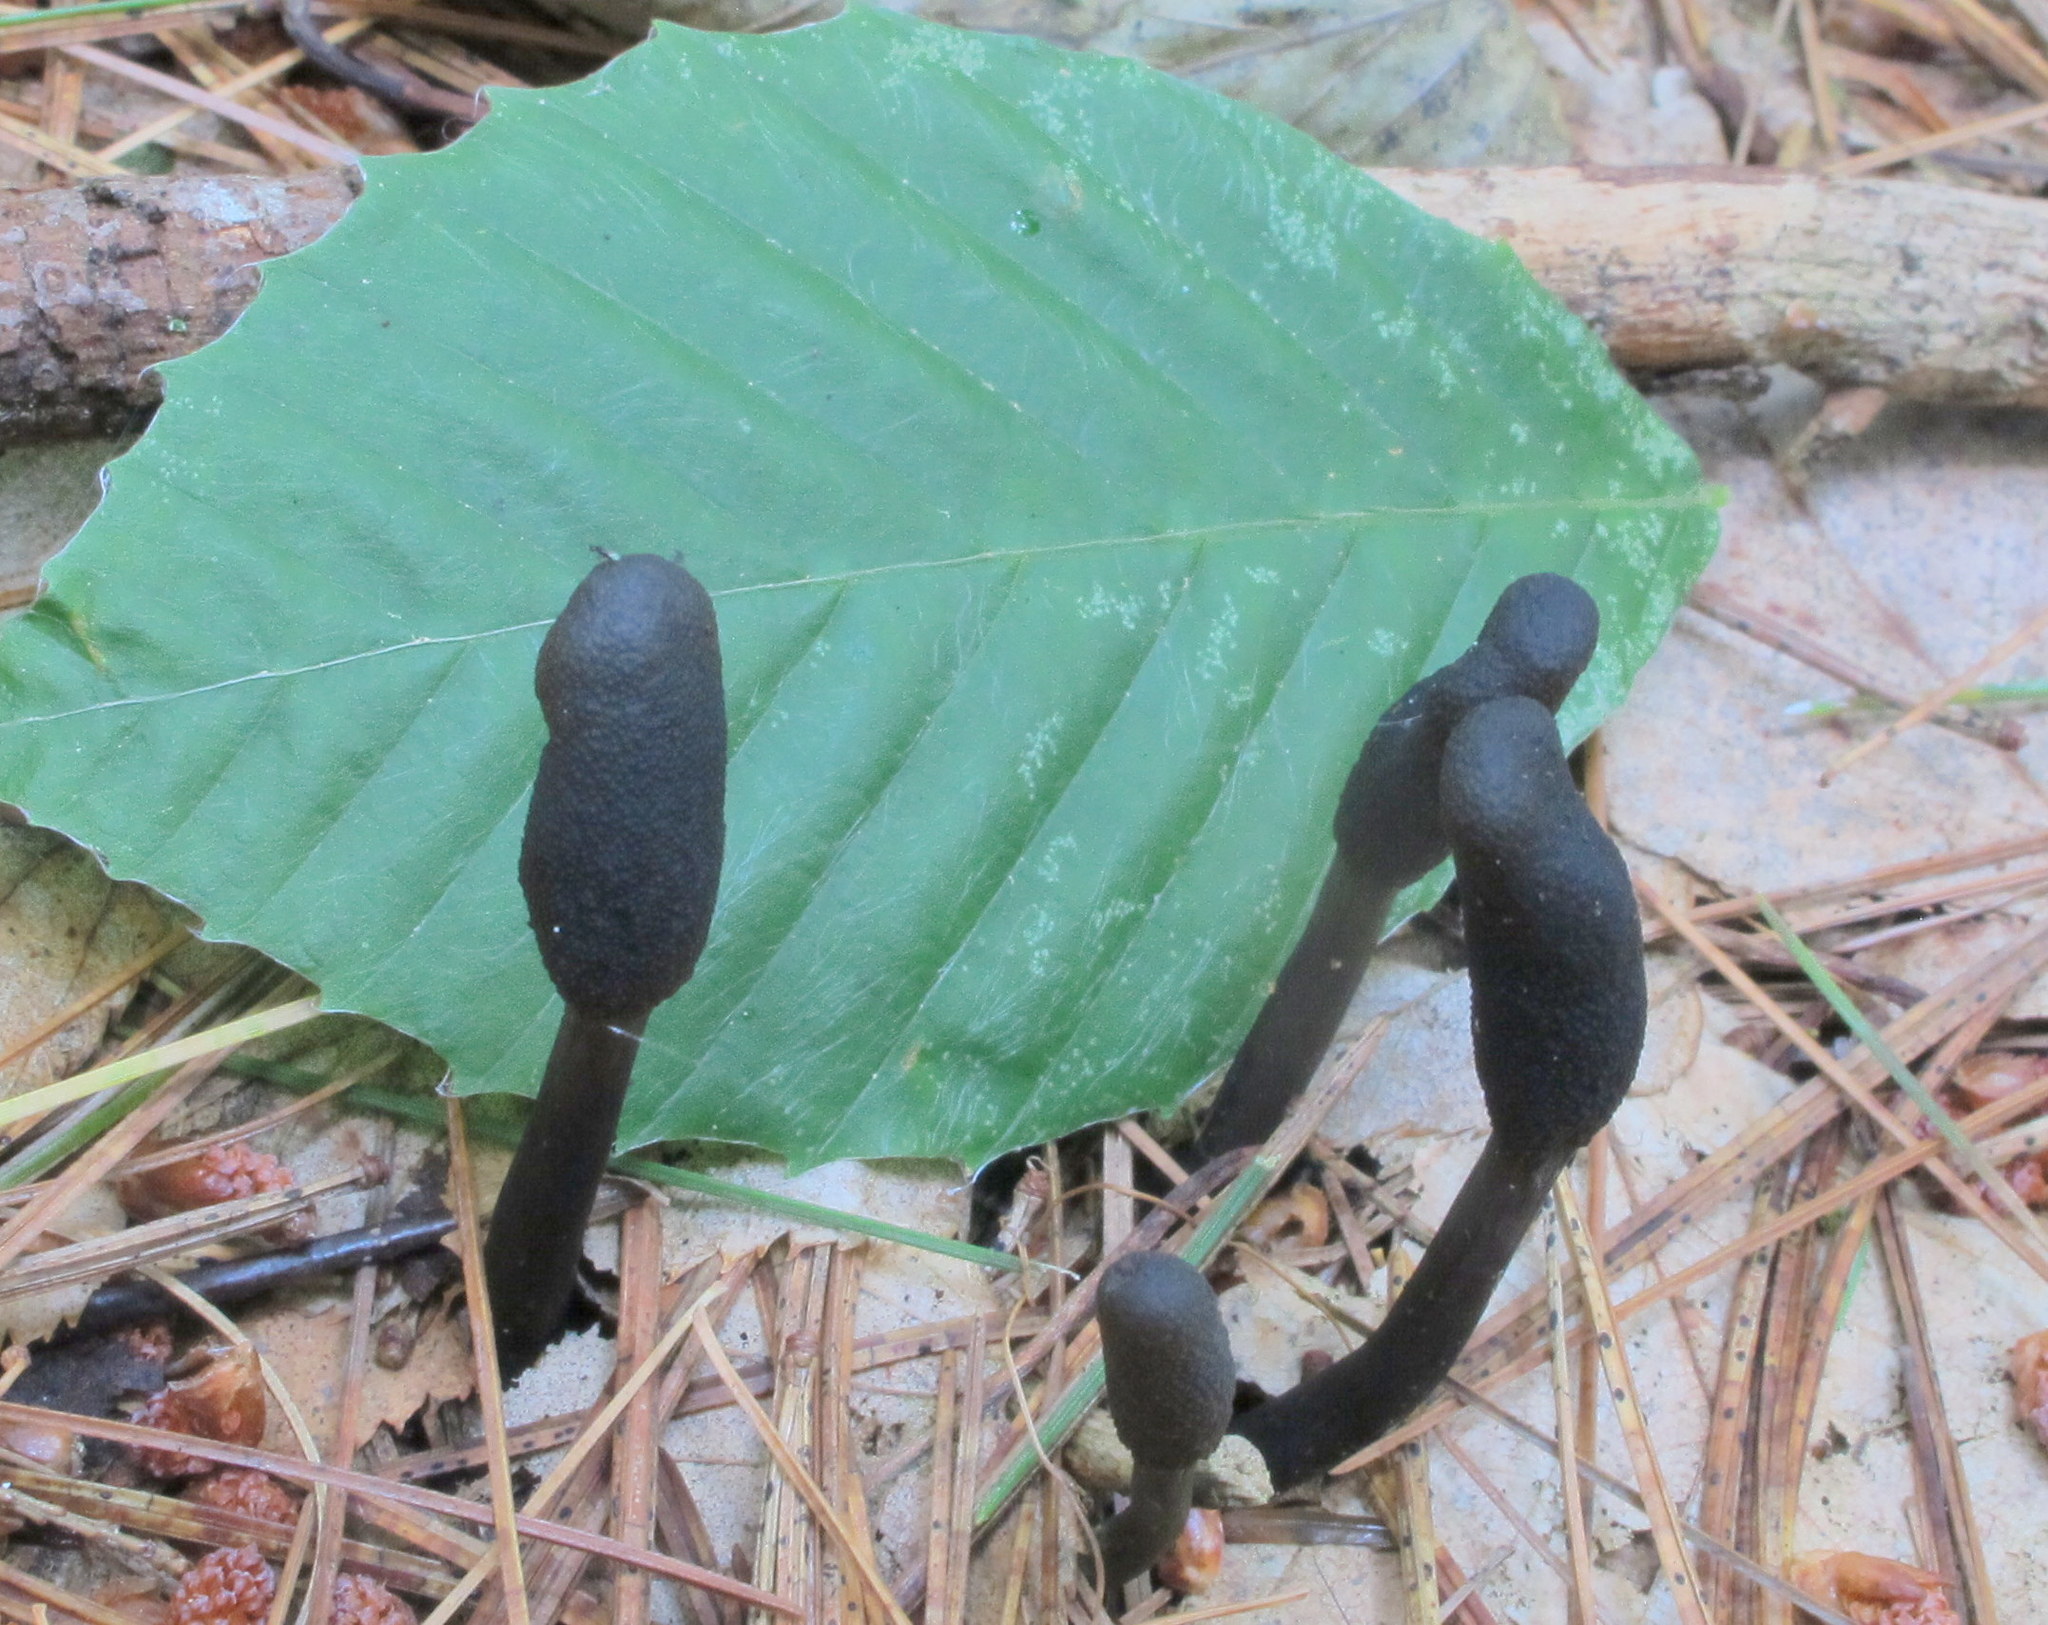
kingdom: Fungi
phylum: Ascomycota
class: Sordariomycetes
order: Hypocreales
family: Ophiocordycipitaceae
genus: Tolypocladium
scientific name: Tolypocladium ophioglossoides
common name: Snaketongue truffleclub
